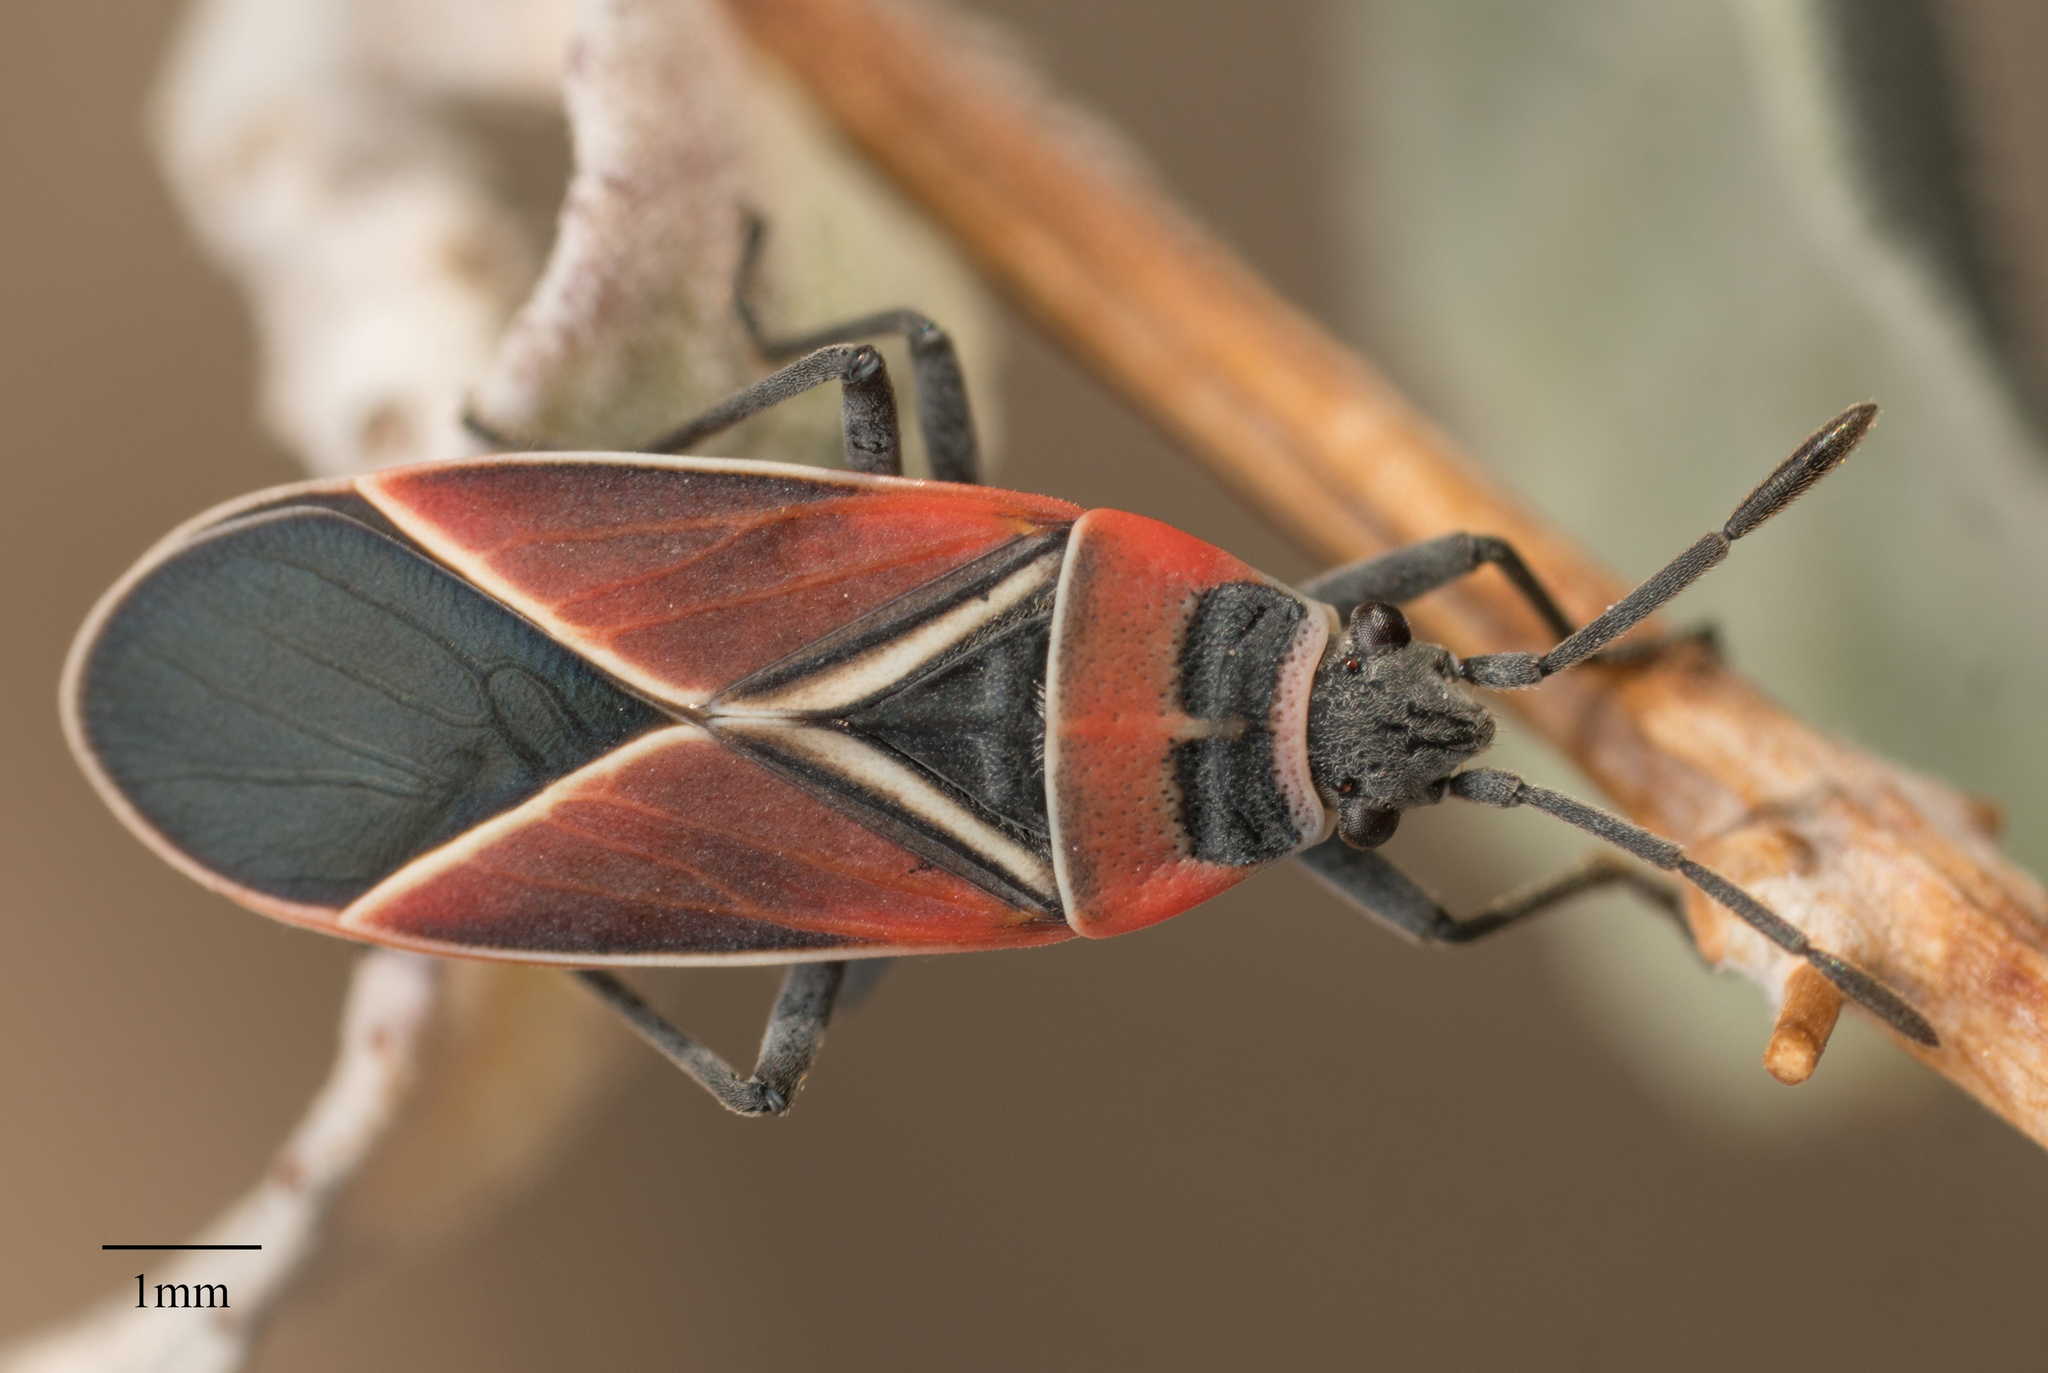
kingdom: Animalia
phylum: Arthropoda
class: Insecta
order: Hemiptera
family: Lygaeidae
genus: Neacoryphus
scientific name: Neacoryphus bicrucis
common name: Lygaeid bug
